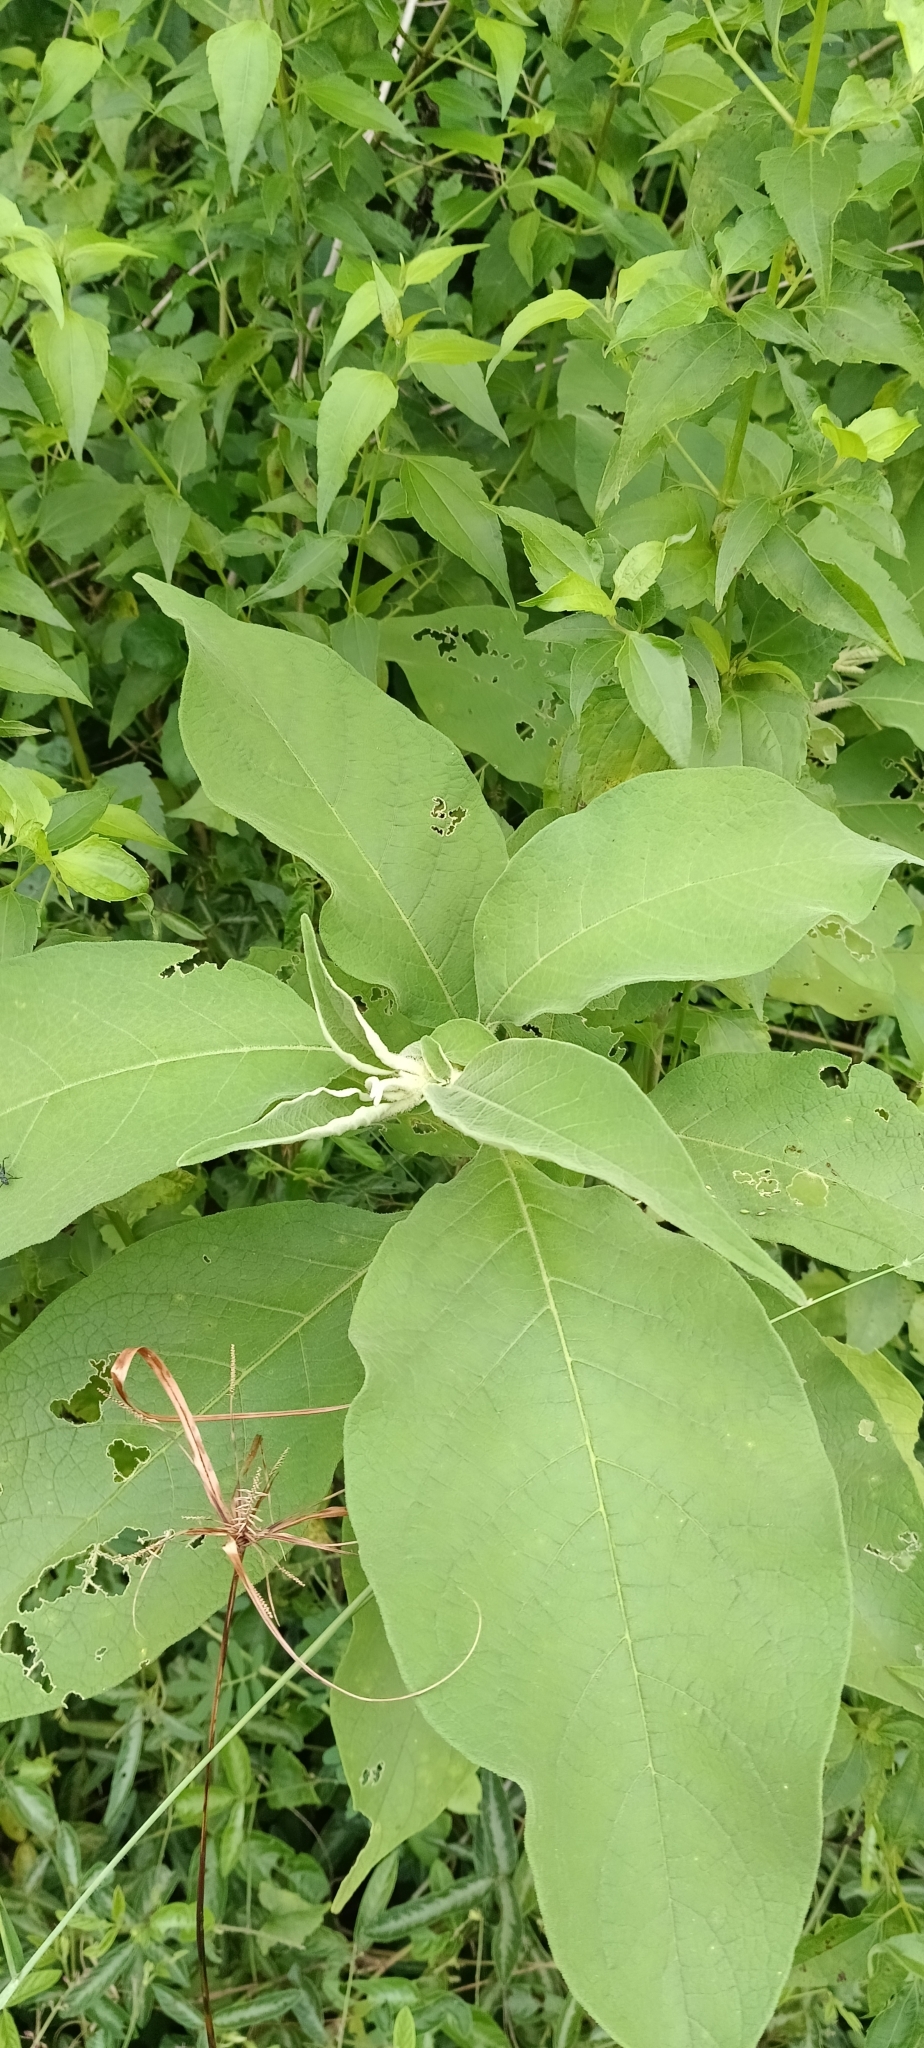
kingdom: Plantae
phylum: Tracheophyta
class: Magnoliopsida
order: Solanales
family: Solanaceae
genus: Solanum
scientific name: Solanum mauritianum
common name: Earleaf nightshade
